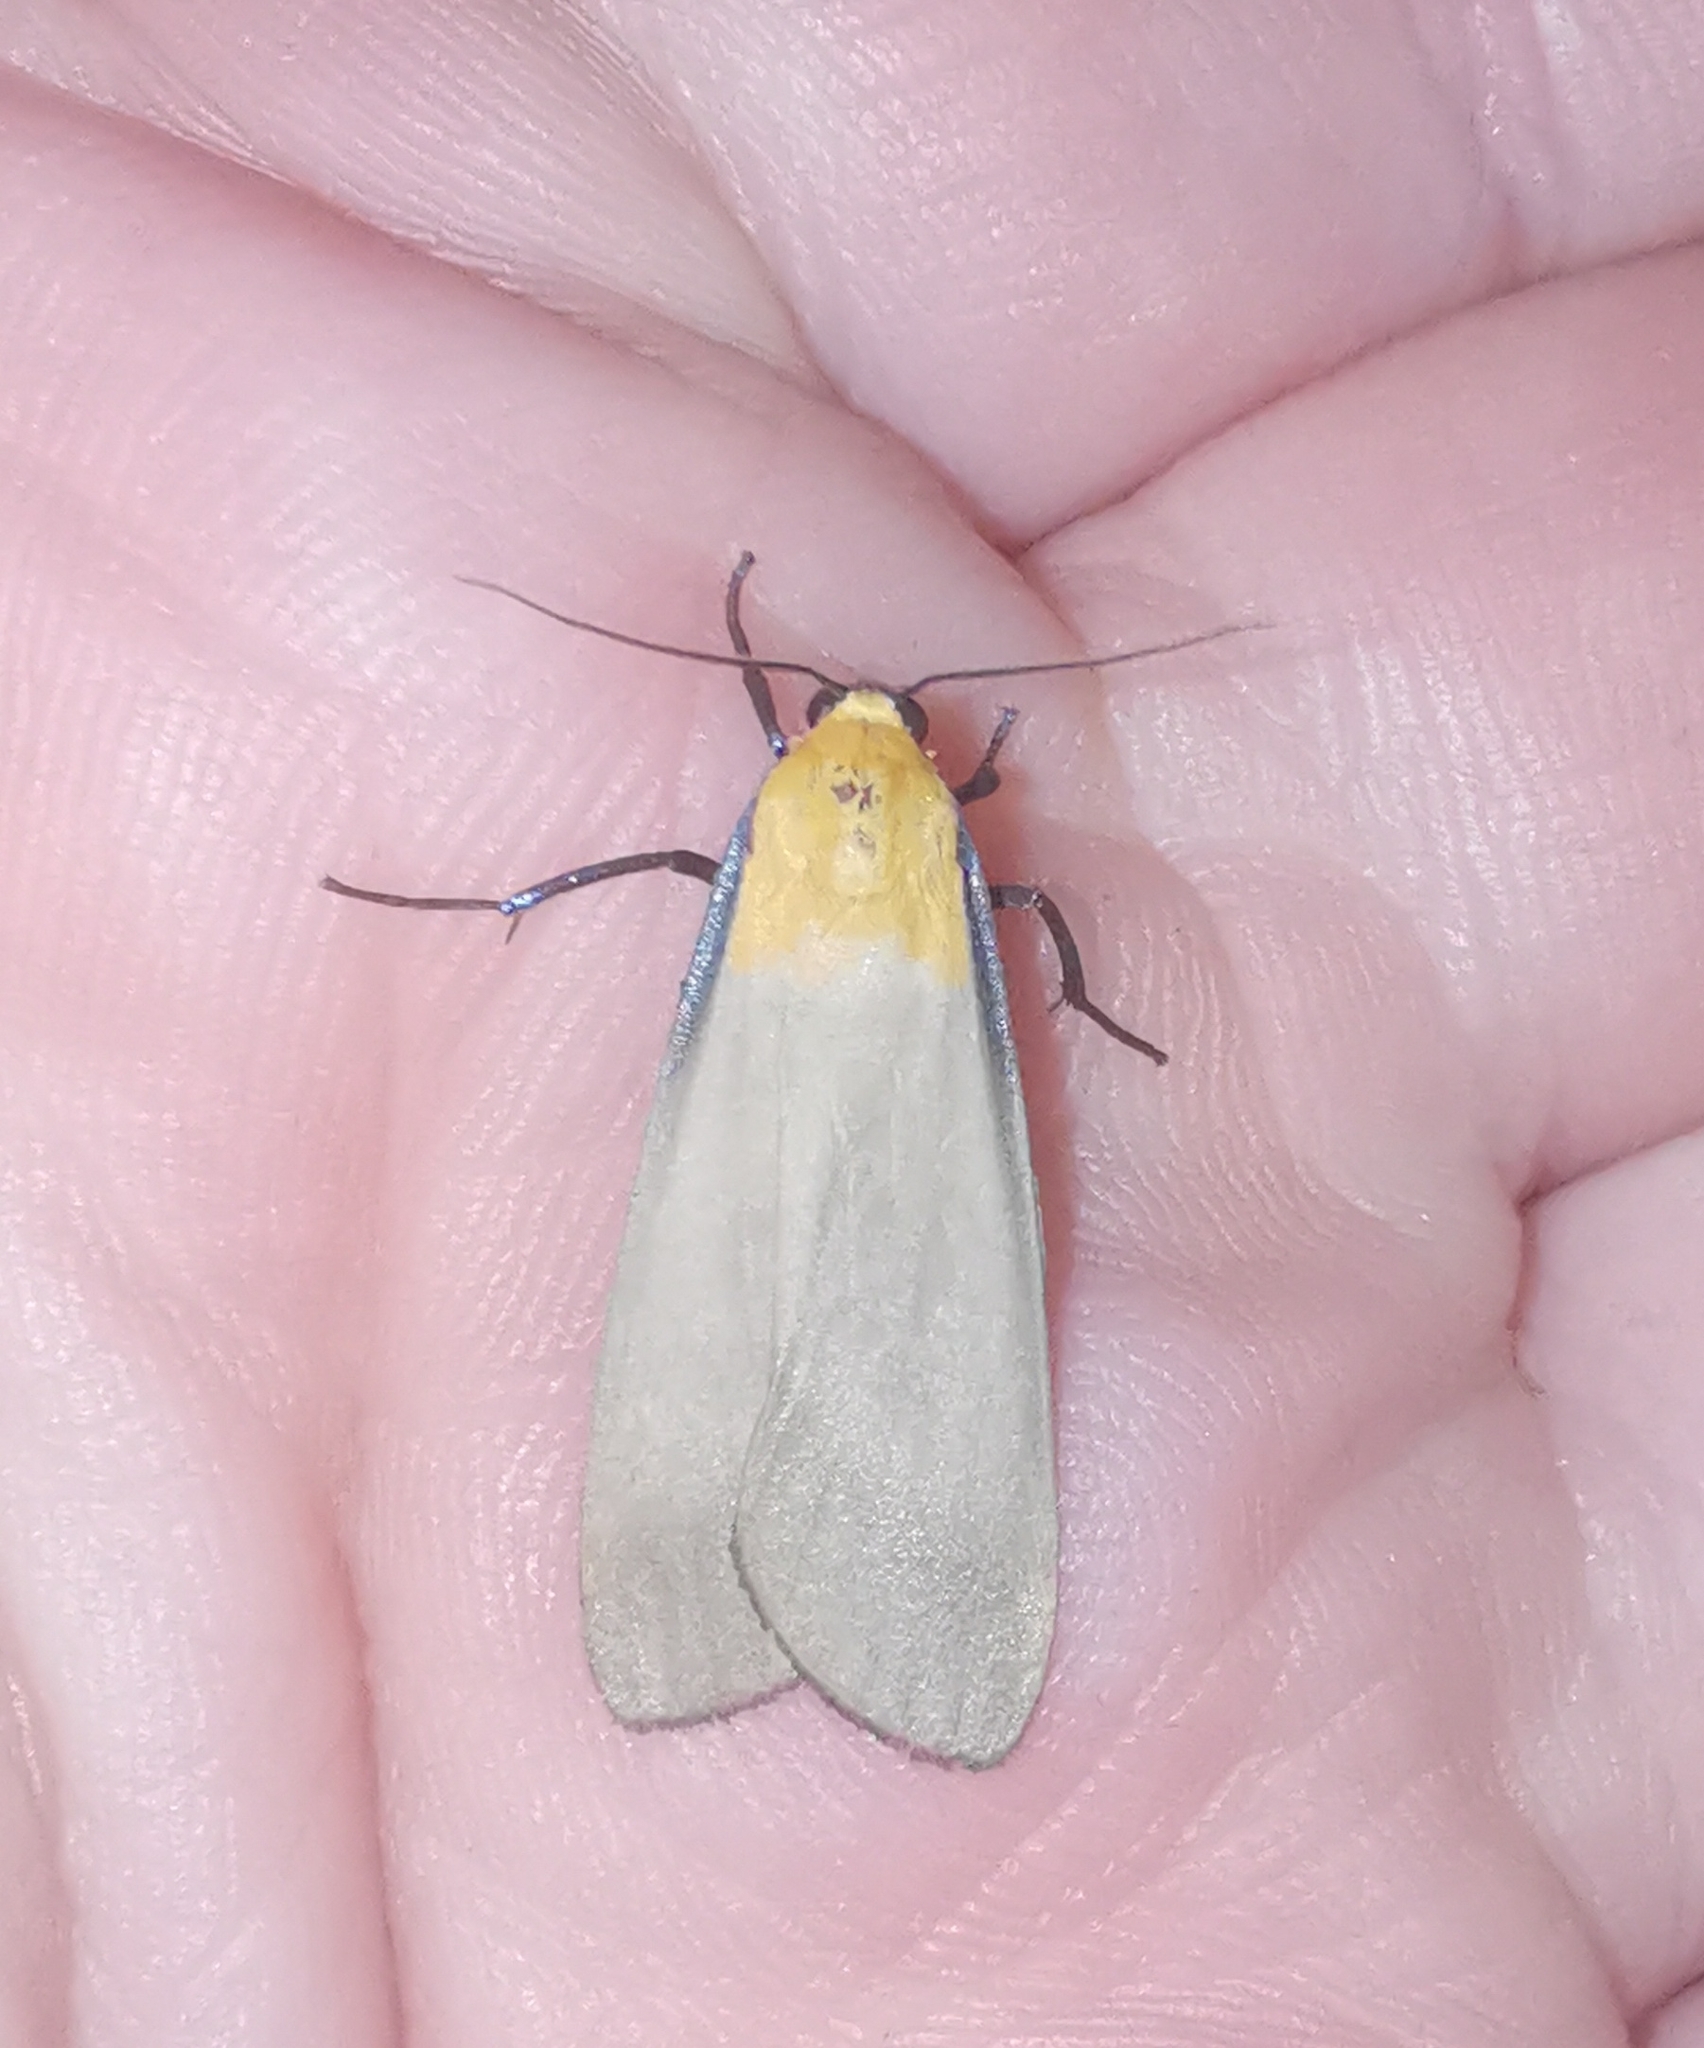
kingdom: Animalia
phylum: Arthropoda
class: Insecta
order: Lepidoptera
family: Erebidae
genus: Lithosia
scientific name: Lithosia quadra
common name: Four-spotted footman
